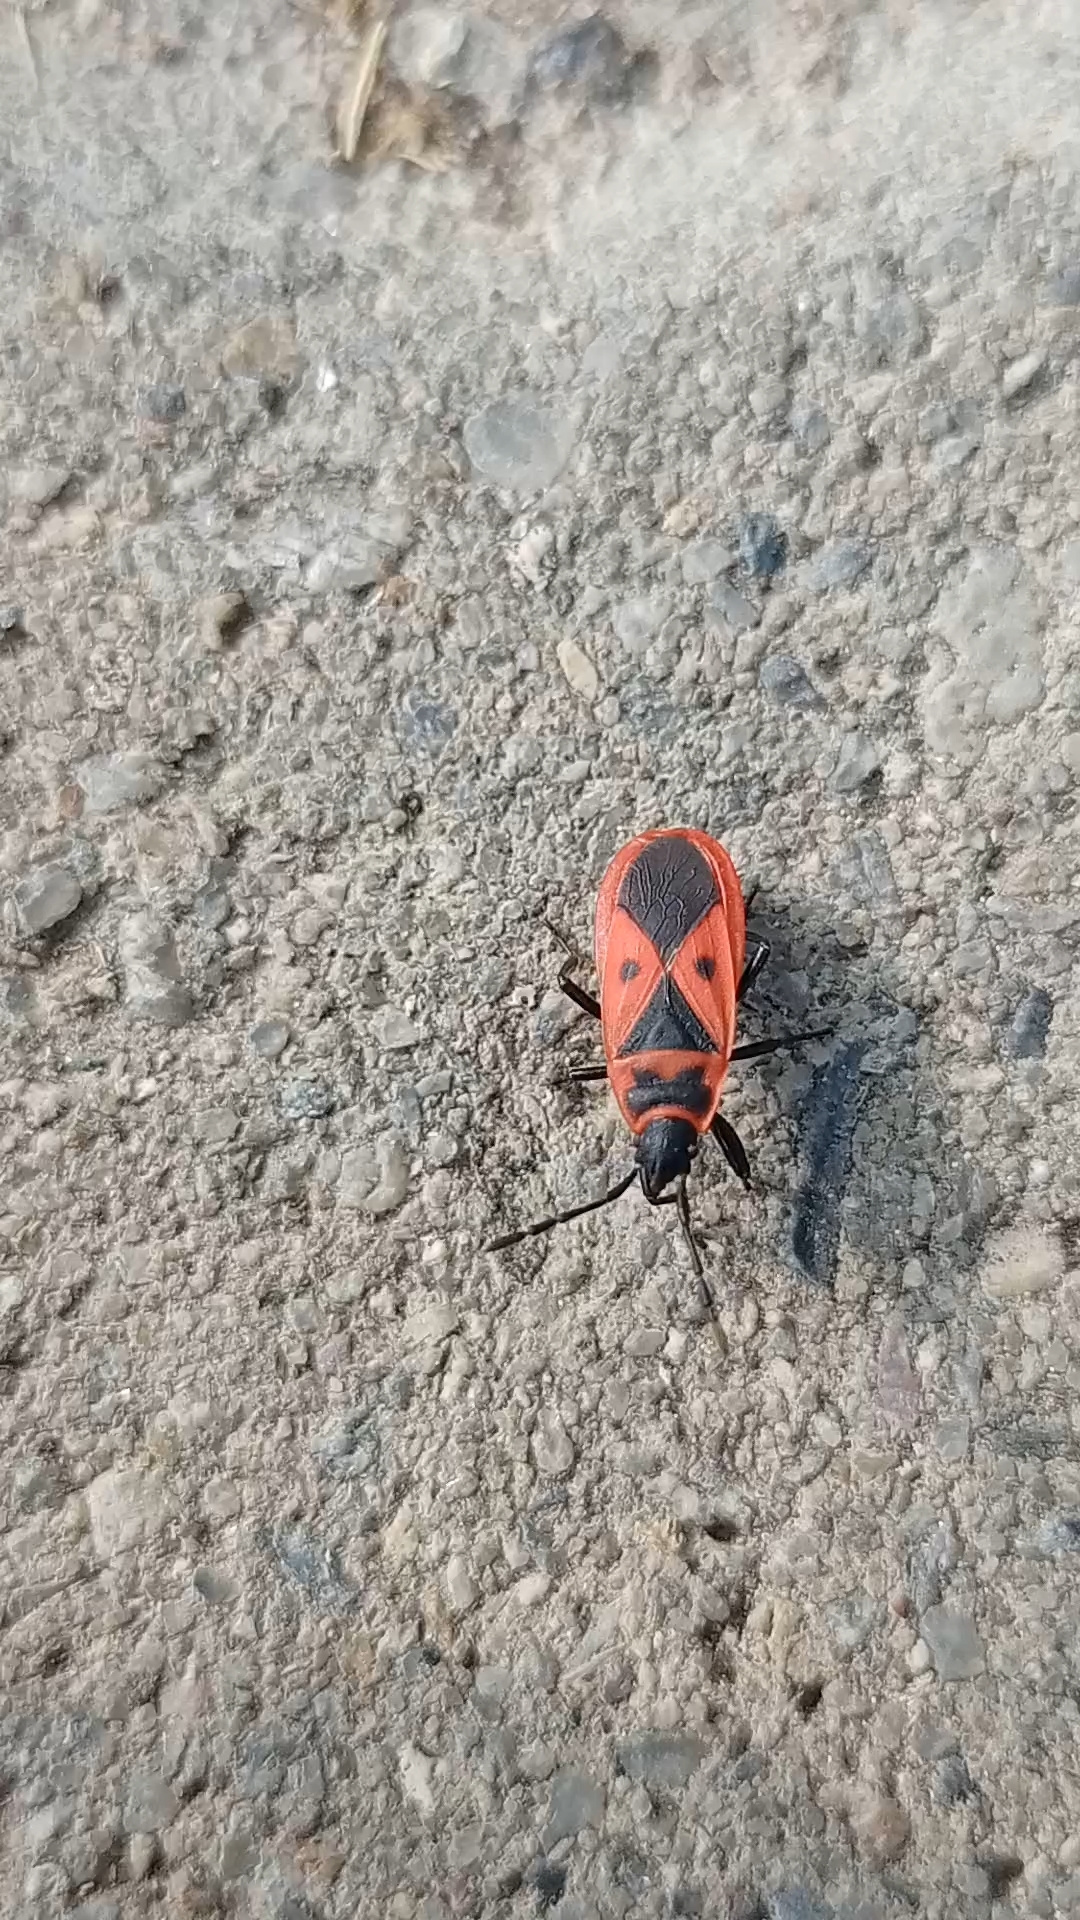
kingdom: Animalia
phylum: Arthropoda
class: Insecta
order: Hemiptera
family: Pyrrhocoridae
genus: Scantius
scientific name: Scantius aegyptius
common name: Red bug
